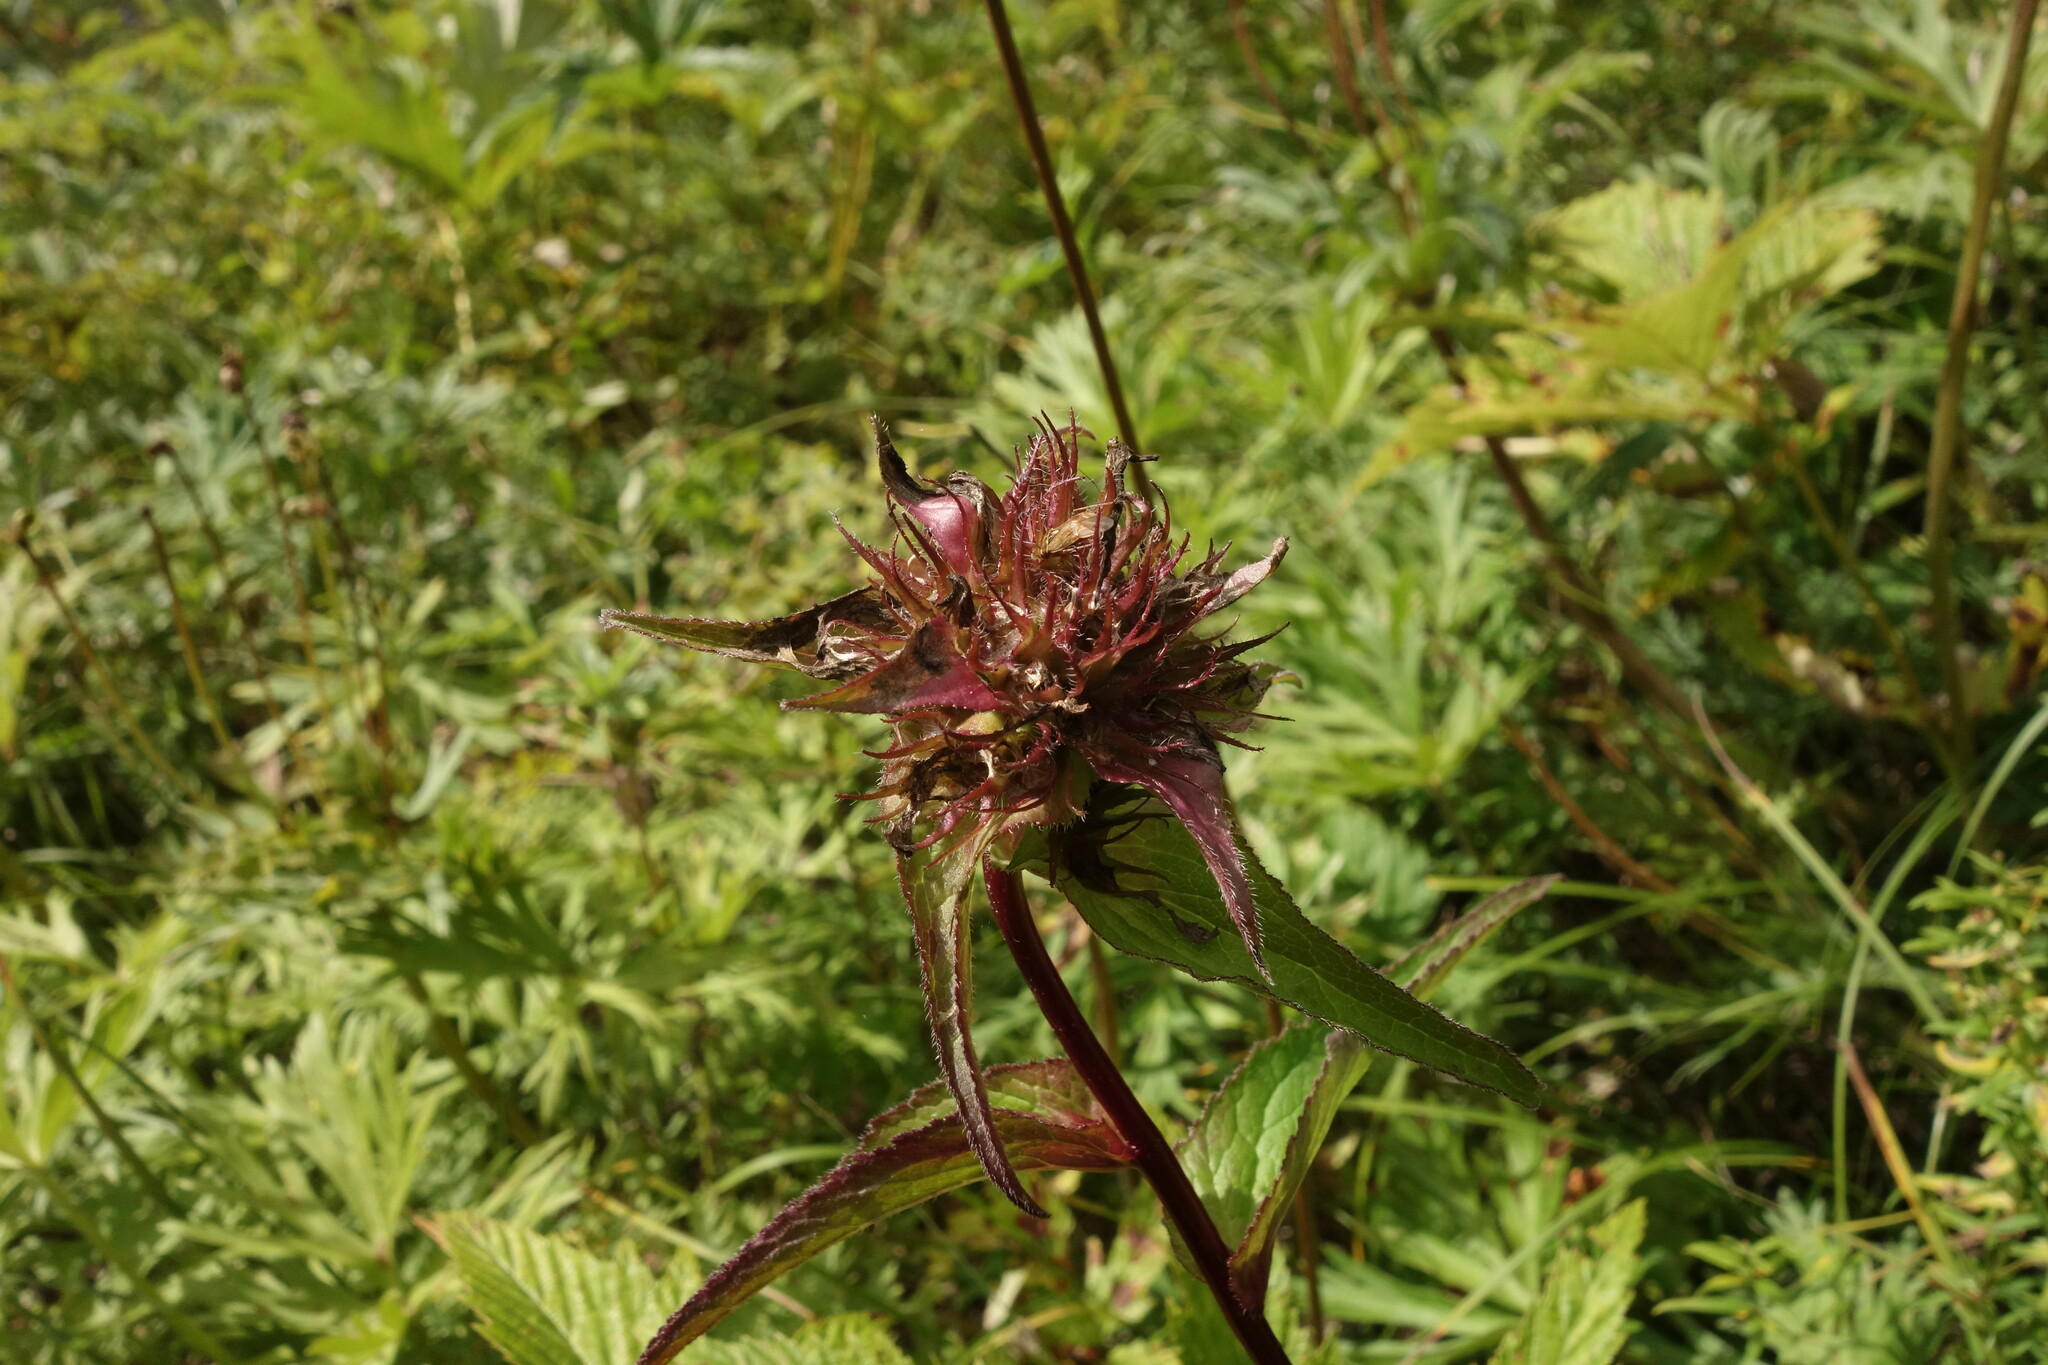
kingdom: Plantae
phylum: Tracheophyta
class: Magnoliopsida
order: Asterales
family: Campanulaceae
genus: Campanula
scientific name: Campanula glomerata
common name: Clustered bellflower
